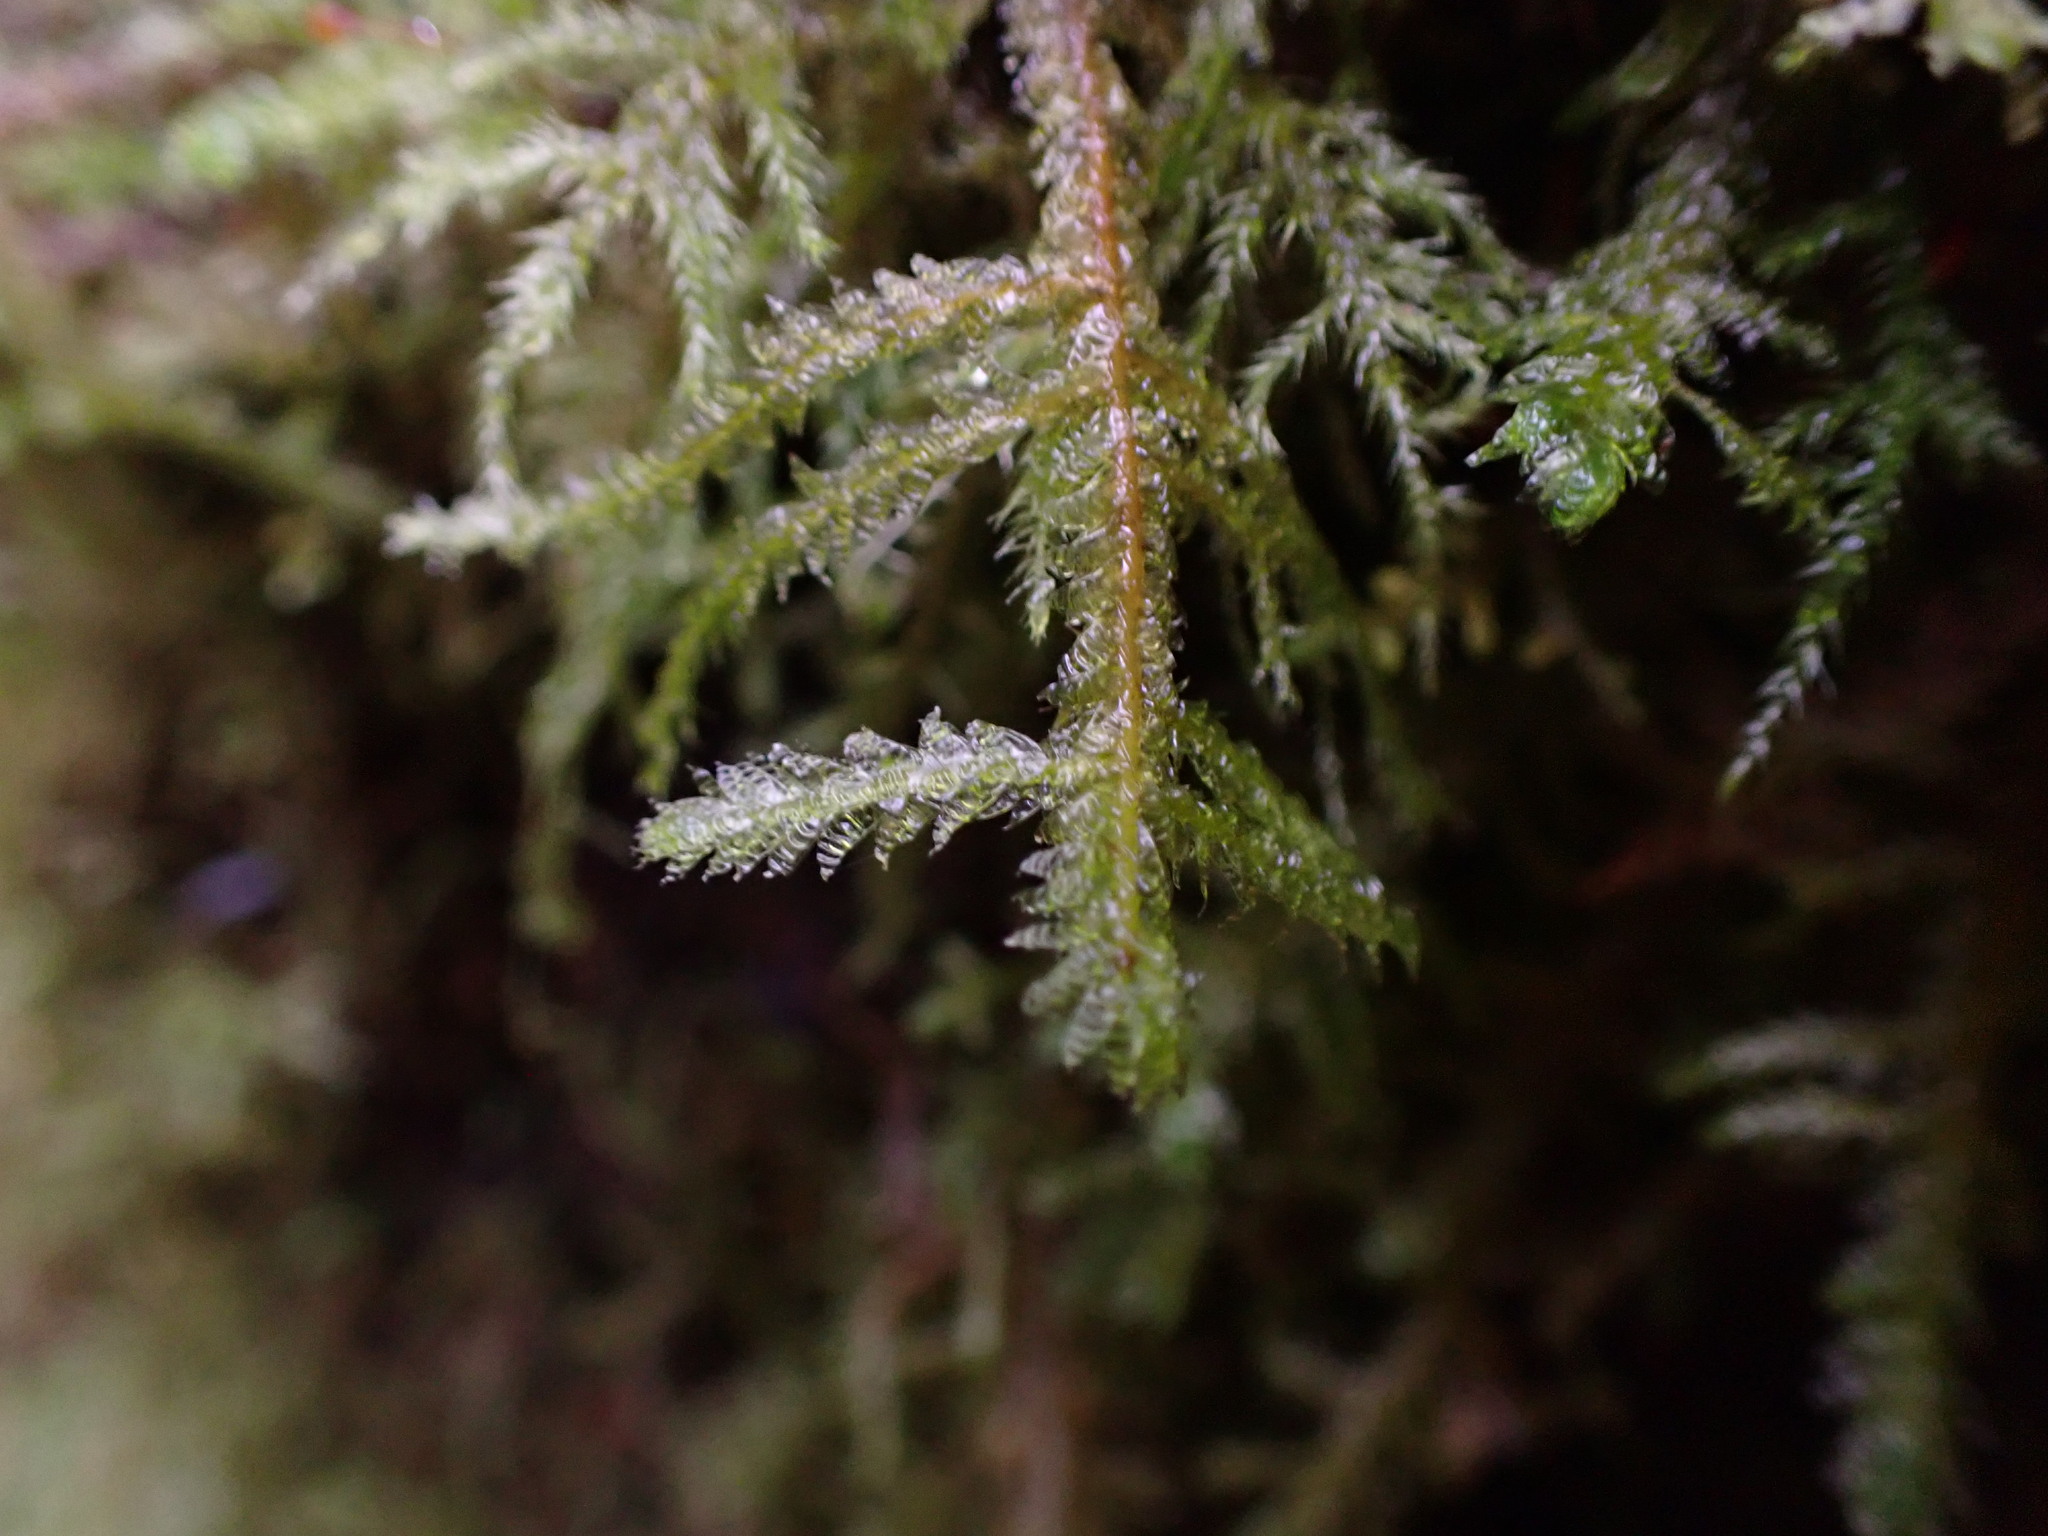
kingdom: Plantae
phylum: Bryophyta
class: Bryopsida
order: Hypnales
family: Neckeraceae
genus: Neckera
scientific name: Neckera douglasii
